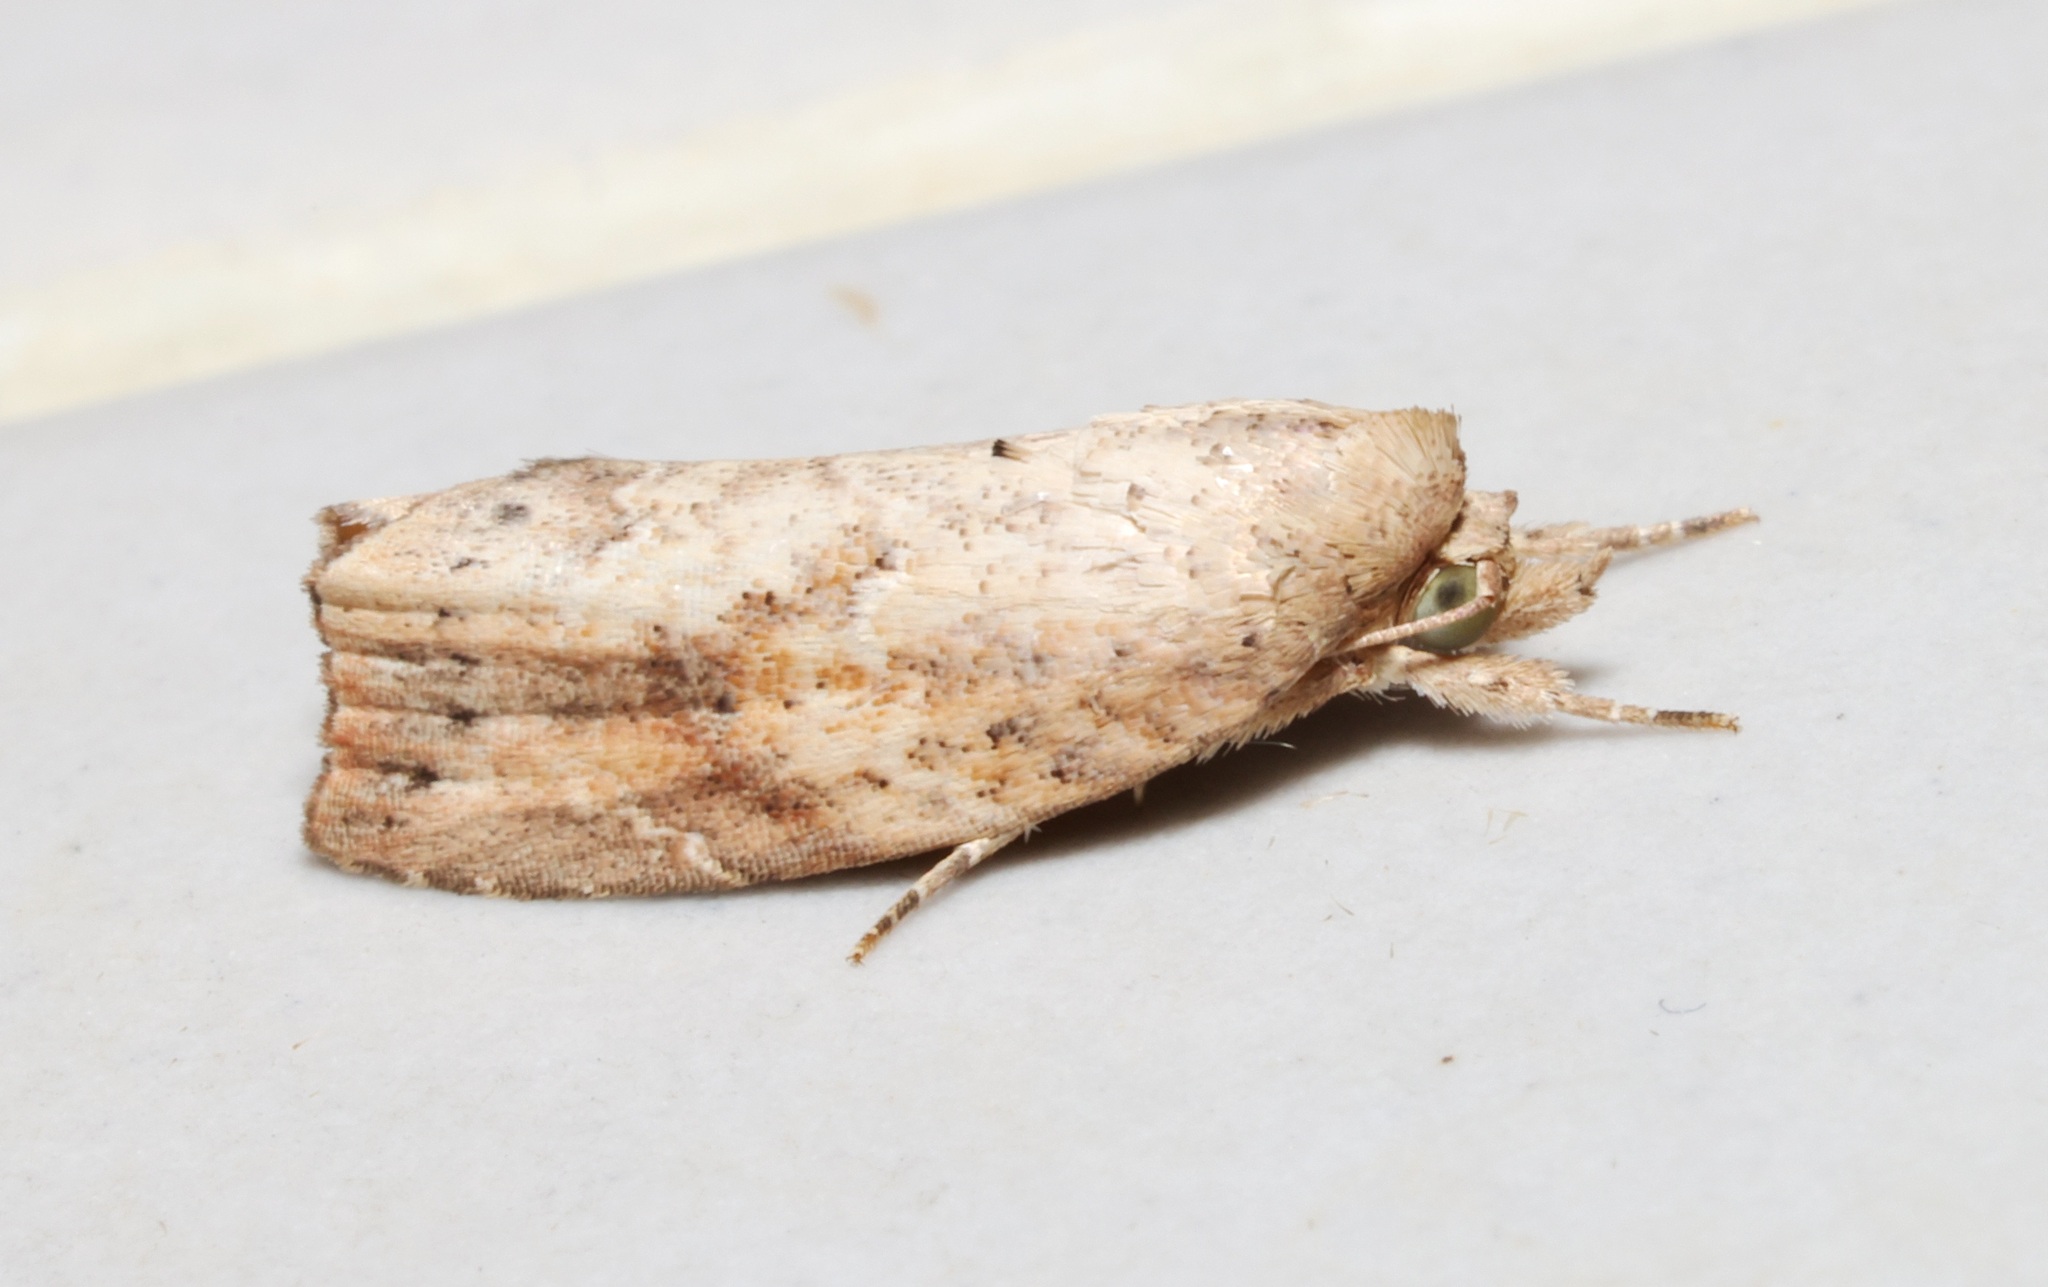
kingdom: Animalia
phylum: Arthropoda
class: Insecta
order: Lepidoptera
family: Nolidae
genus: Camptozada
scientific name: Camptozada mirabilis
